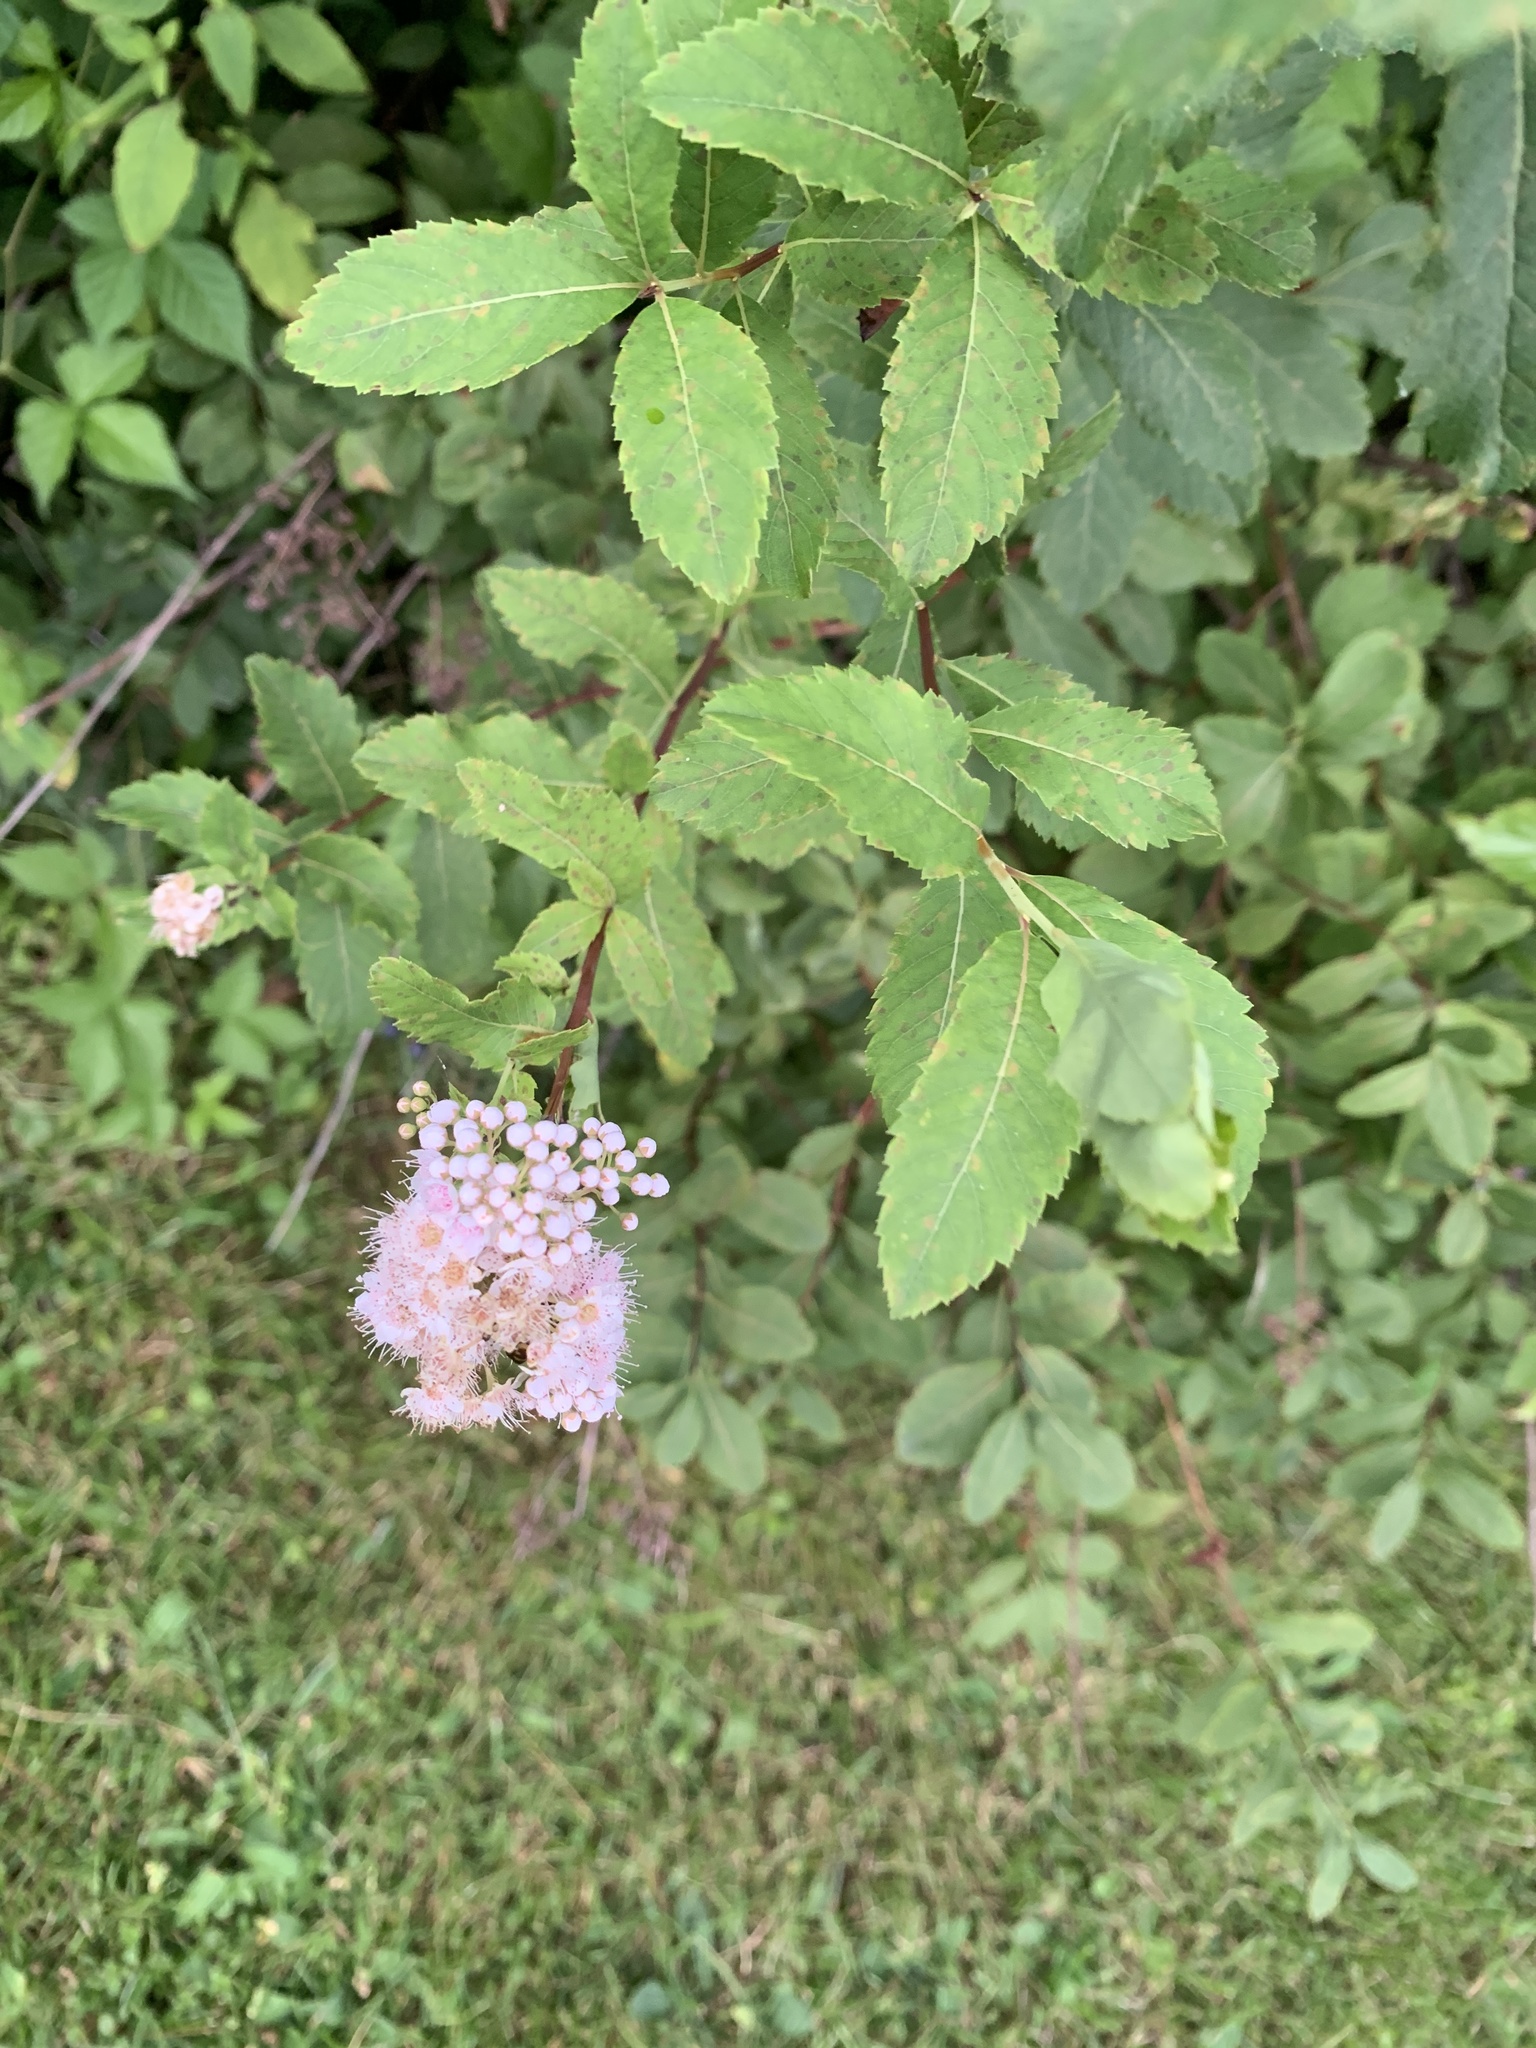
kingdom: Plantae
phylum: Tracheophyta
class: Magnoliopsida
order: Rosales
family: Rosaceae
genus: Spiraea
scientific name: Spiraea alba
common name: Pale bridewort
